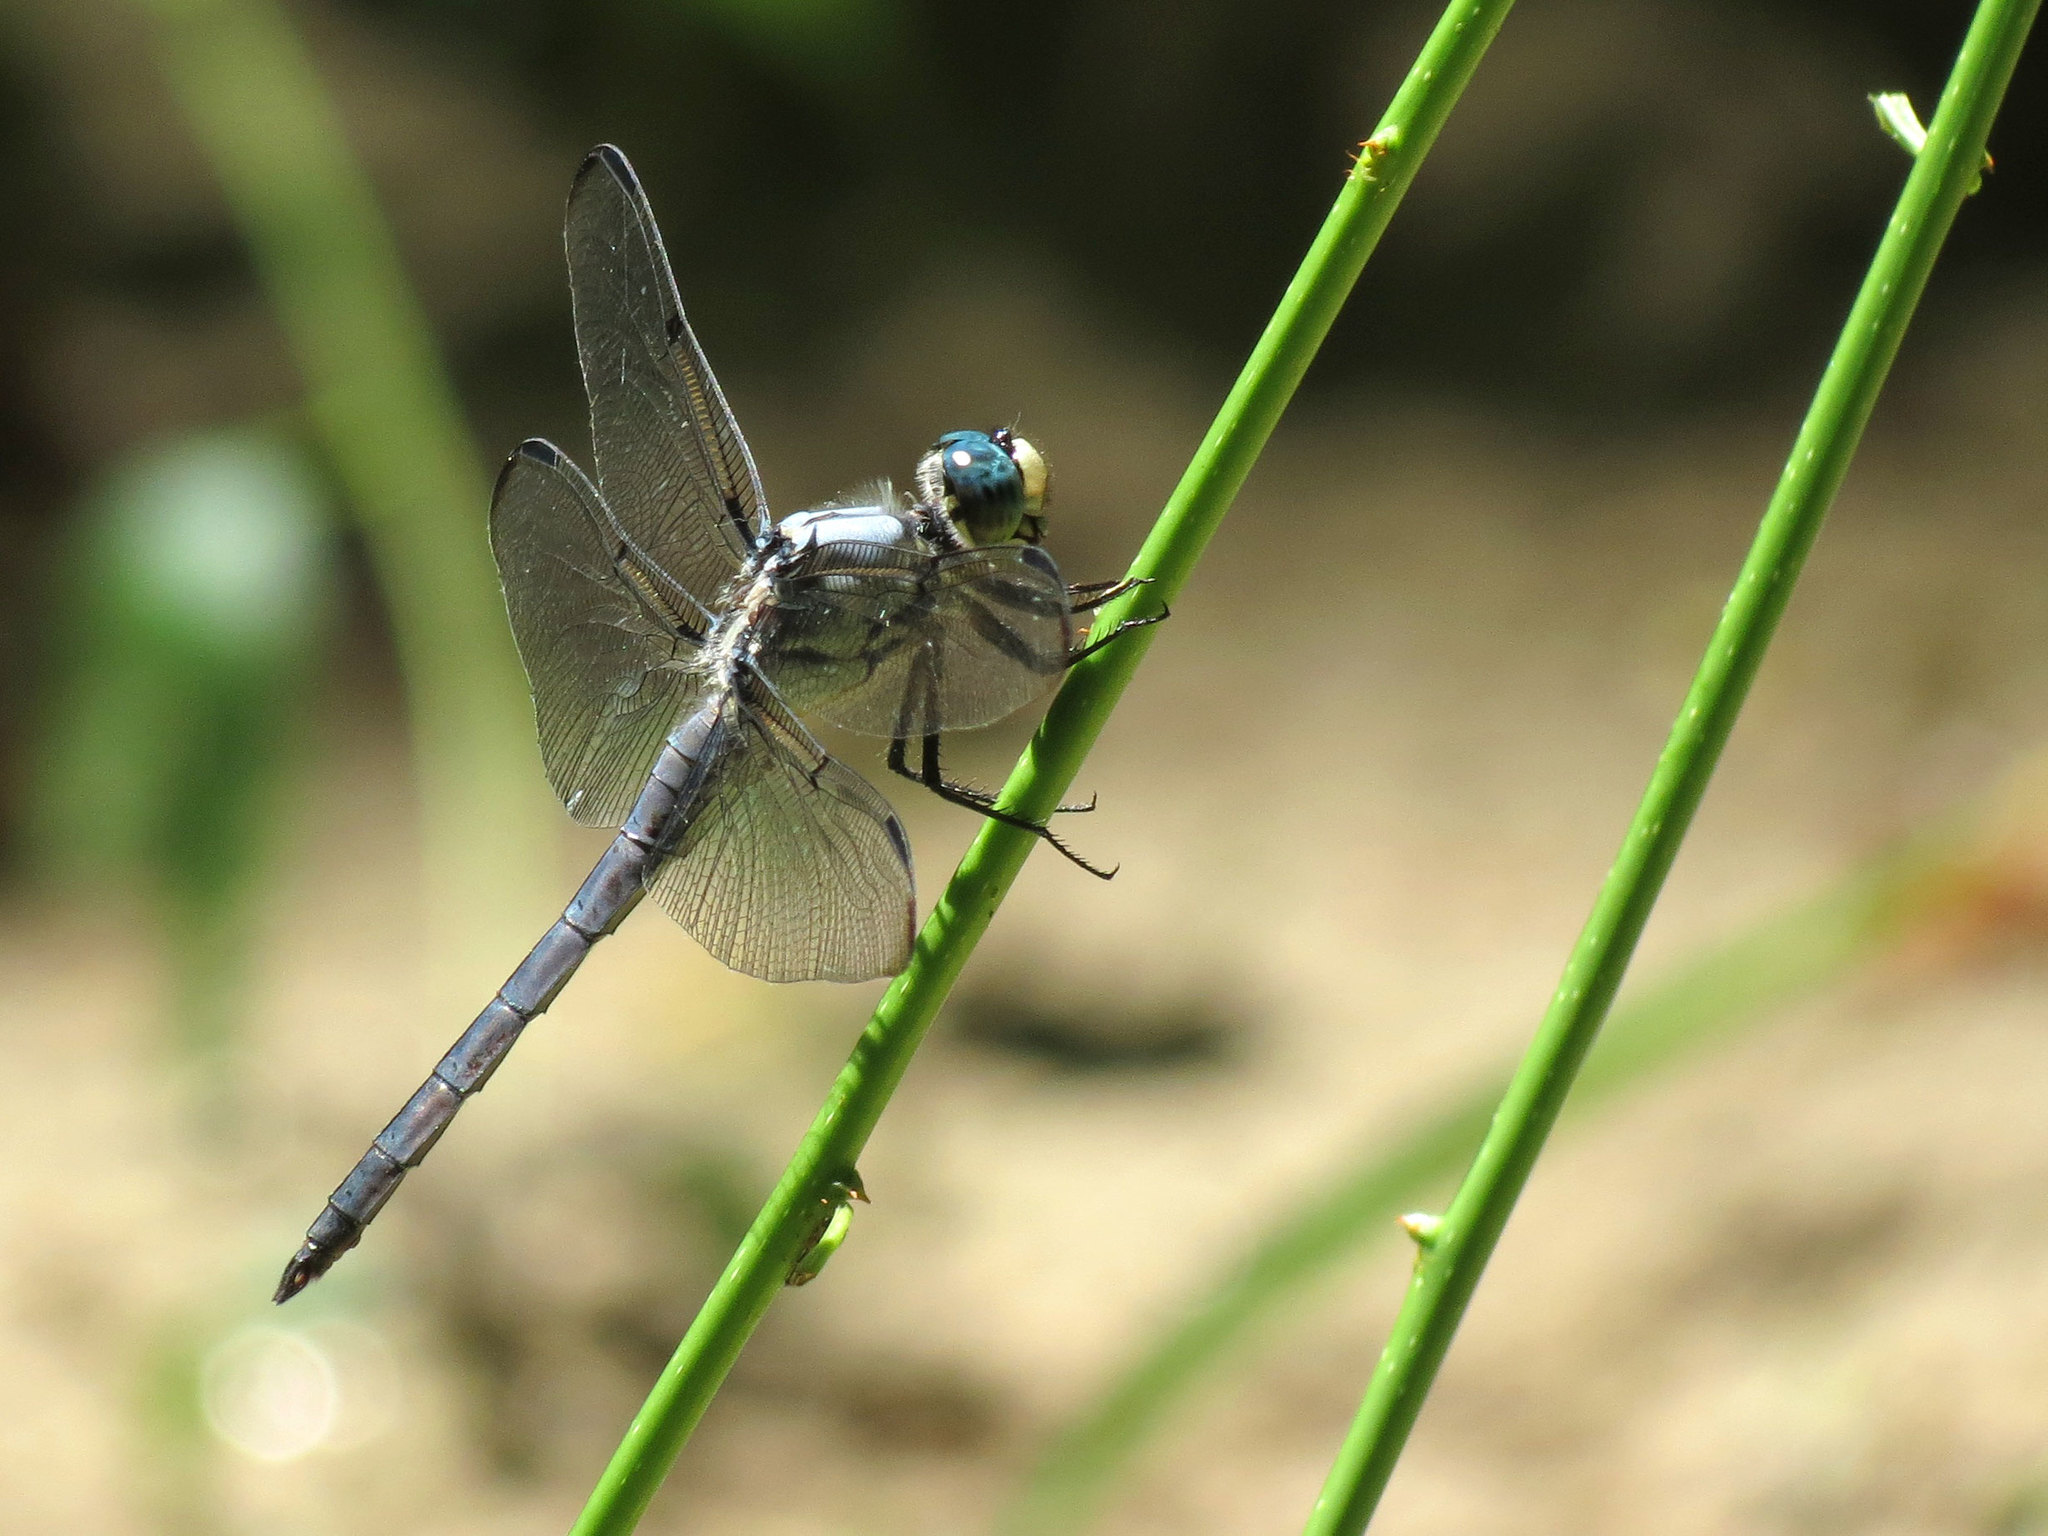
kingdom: Animalia
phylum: Arthropoda
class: Insecta
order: Odonata
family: Libellulidae
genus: Libellula
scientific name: Libellula vibrans
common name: Great blue skimmer
